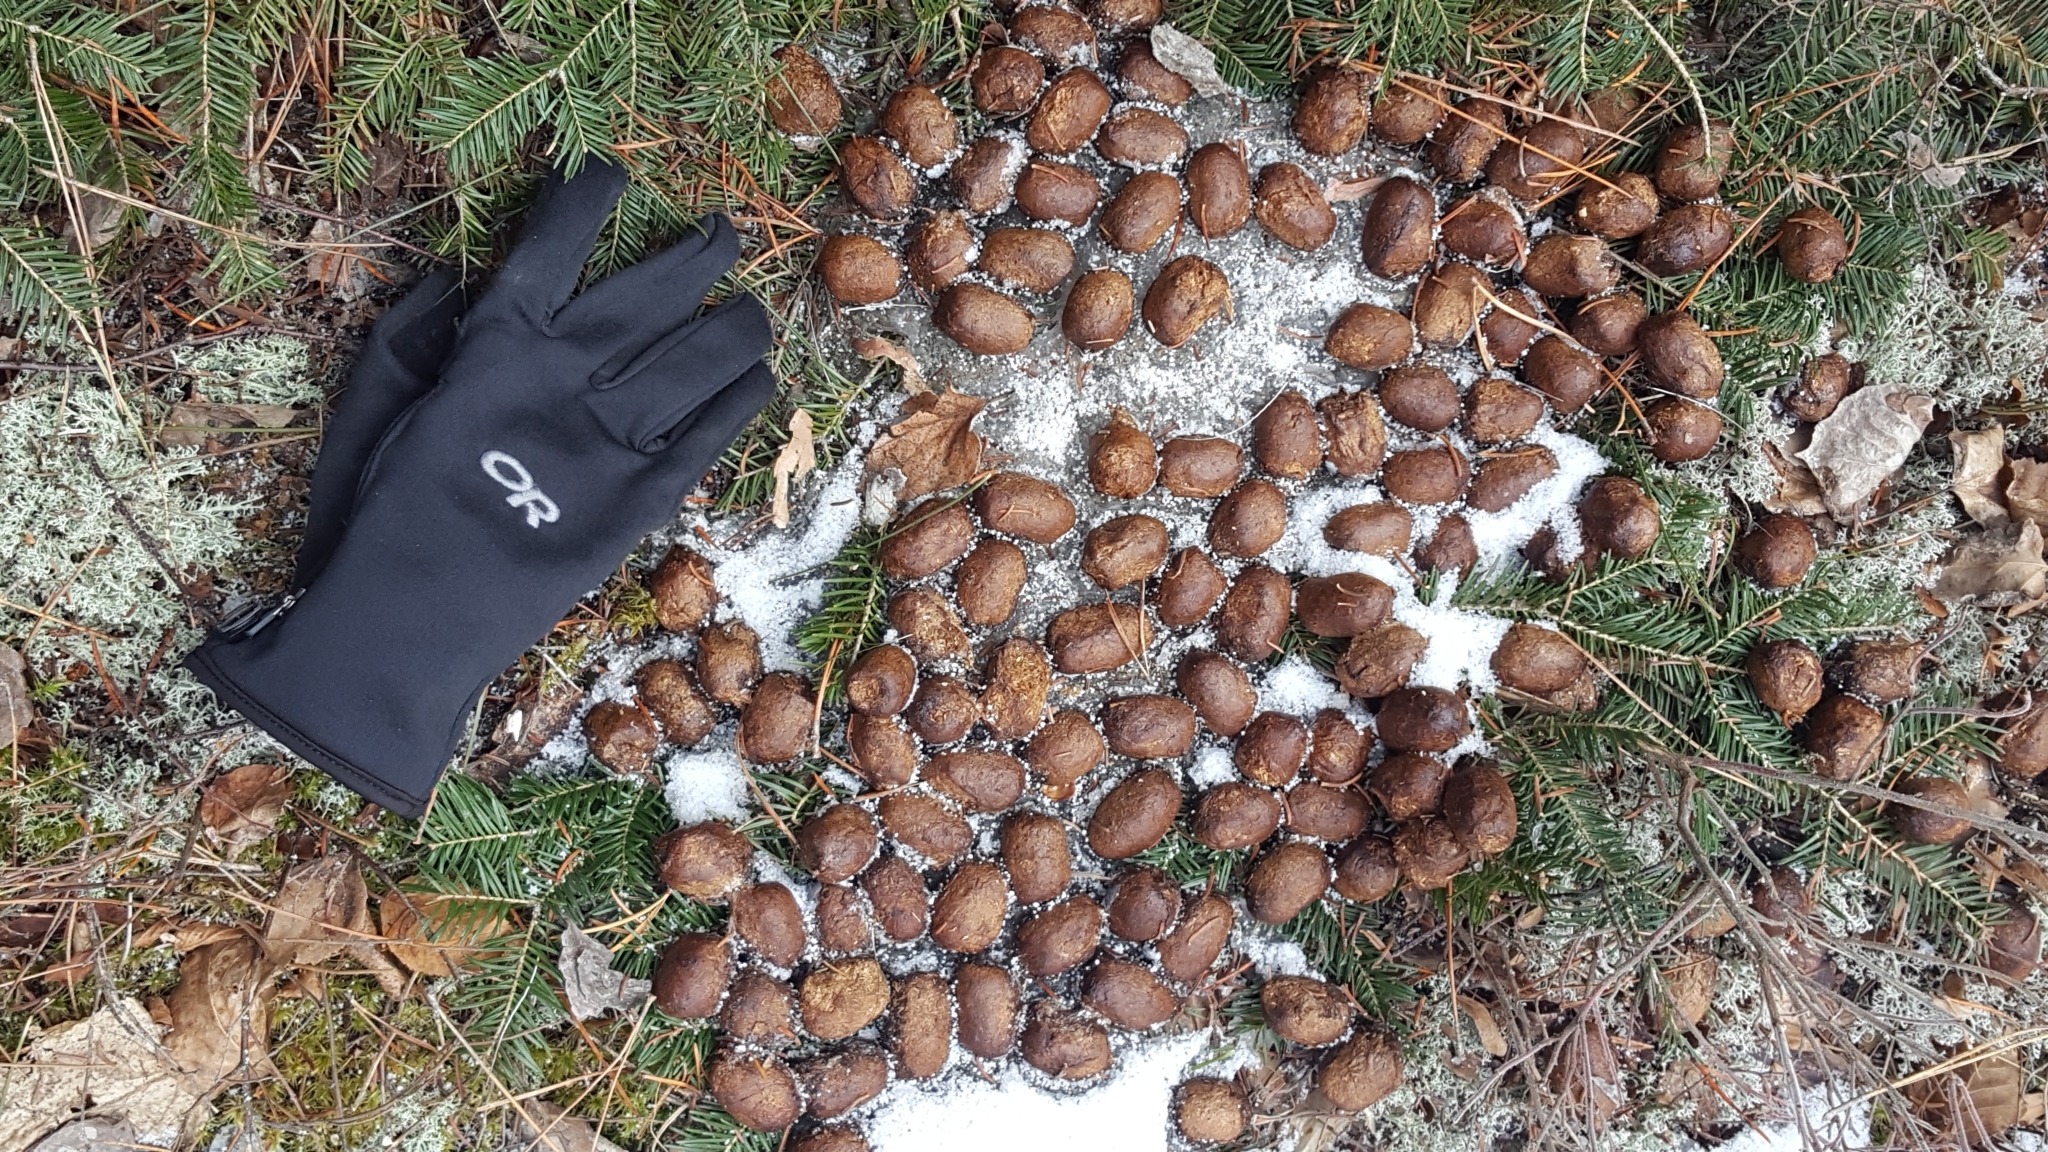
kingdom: Animalia
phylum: Chordata
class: Mammalia
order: Artiodactyla
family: Cervidae
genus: Alces
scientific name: Alces americanus
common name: Moose
